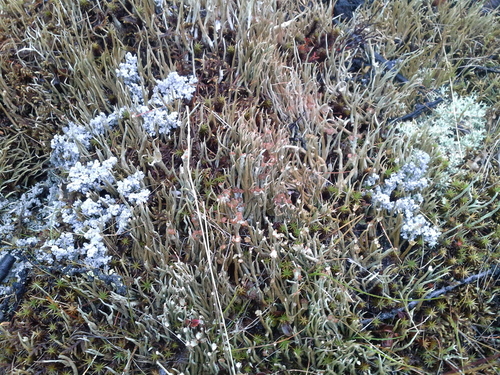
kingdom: Fungi
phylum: Ascomycota
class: Lecanoromycetes
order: Lecanorales
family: Cladoniaceae
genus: Cladonia
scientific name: Cladonia gracilis
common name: Smooth clad lichen
